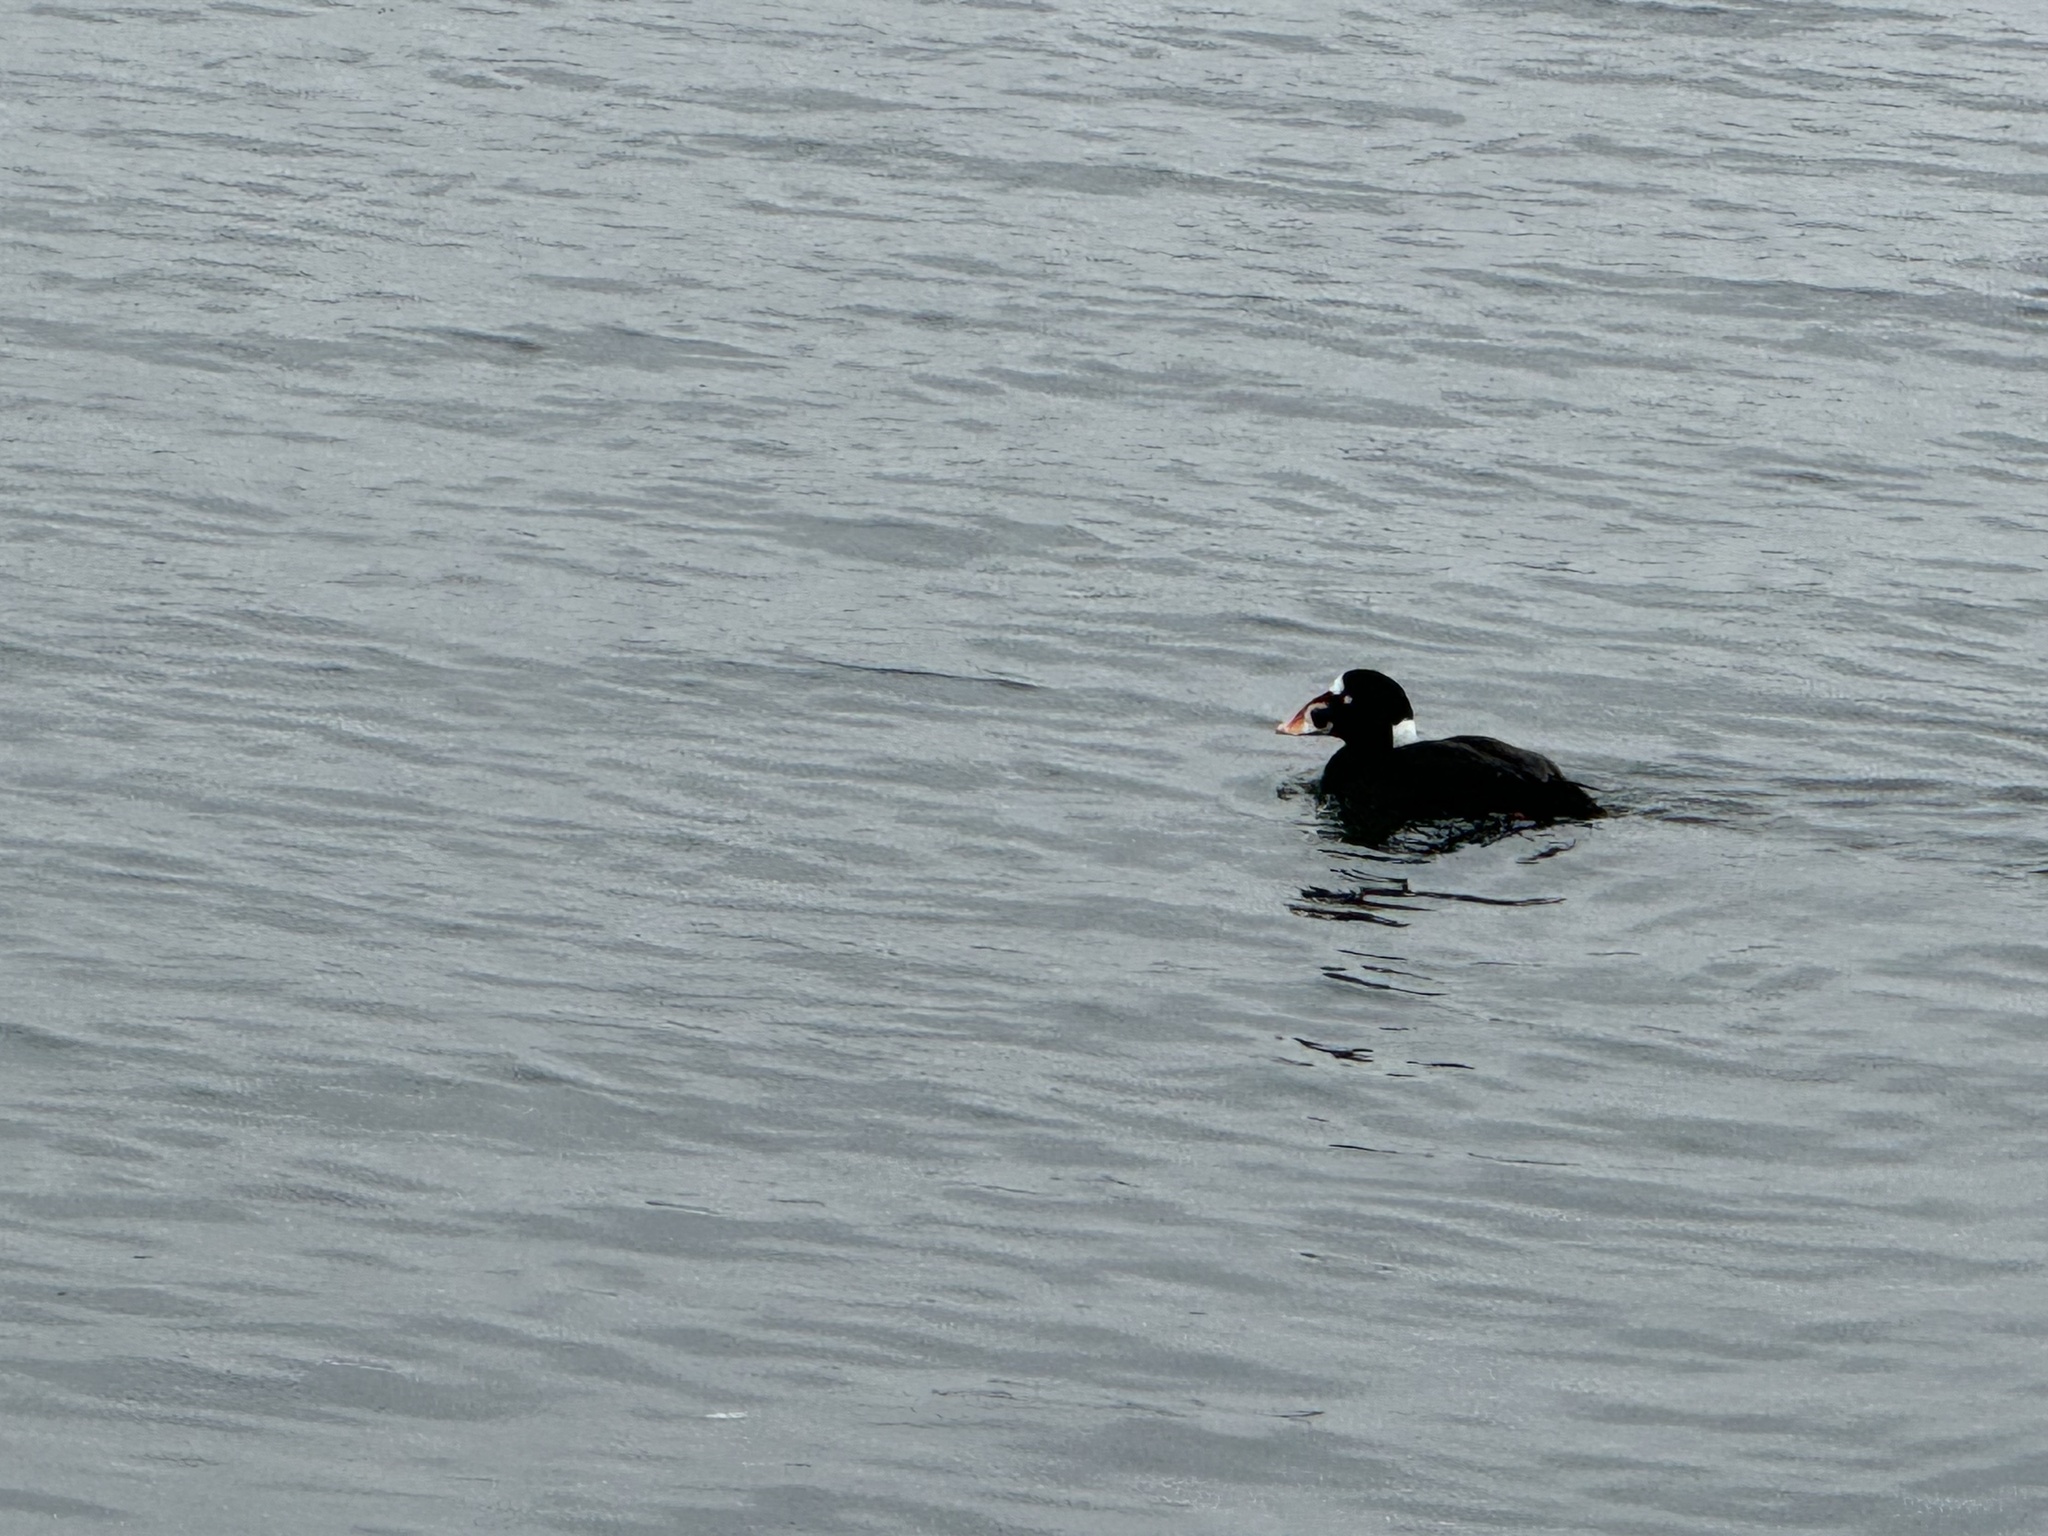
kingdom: Animalia
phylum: Chordata
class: Aves
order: Anseriformes
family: Anatidae
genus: Melanitta
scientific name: Melanitta perspicillata
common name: Surf scoter
